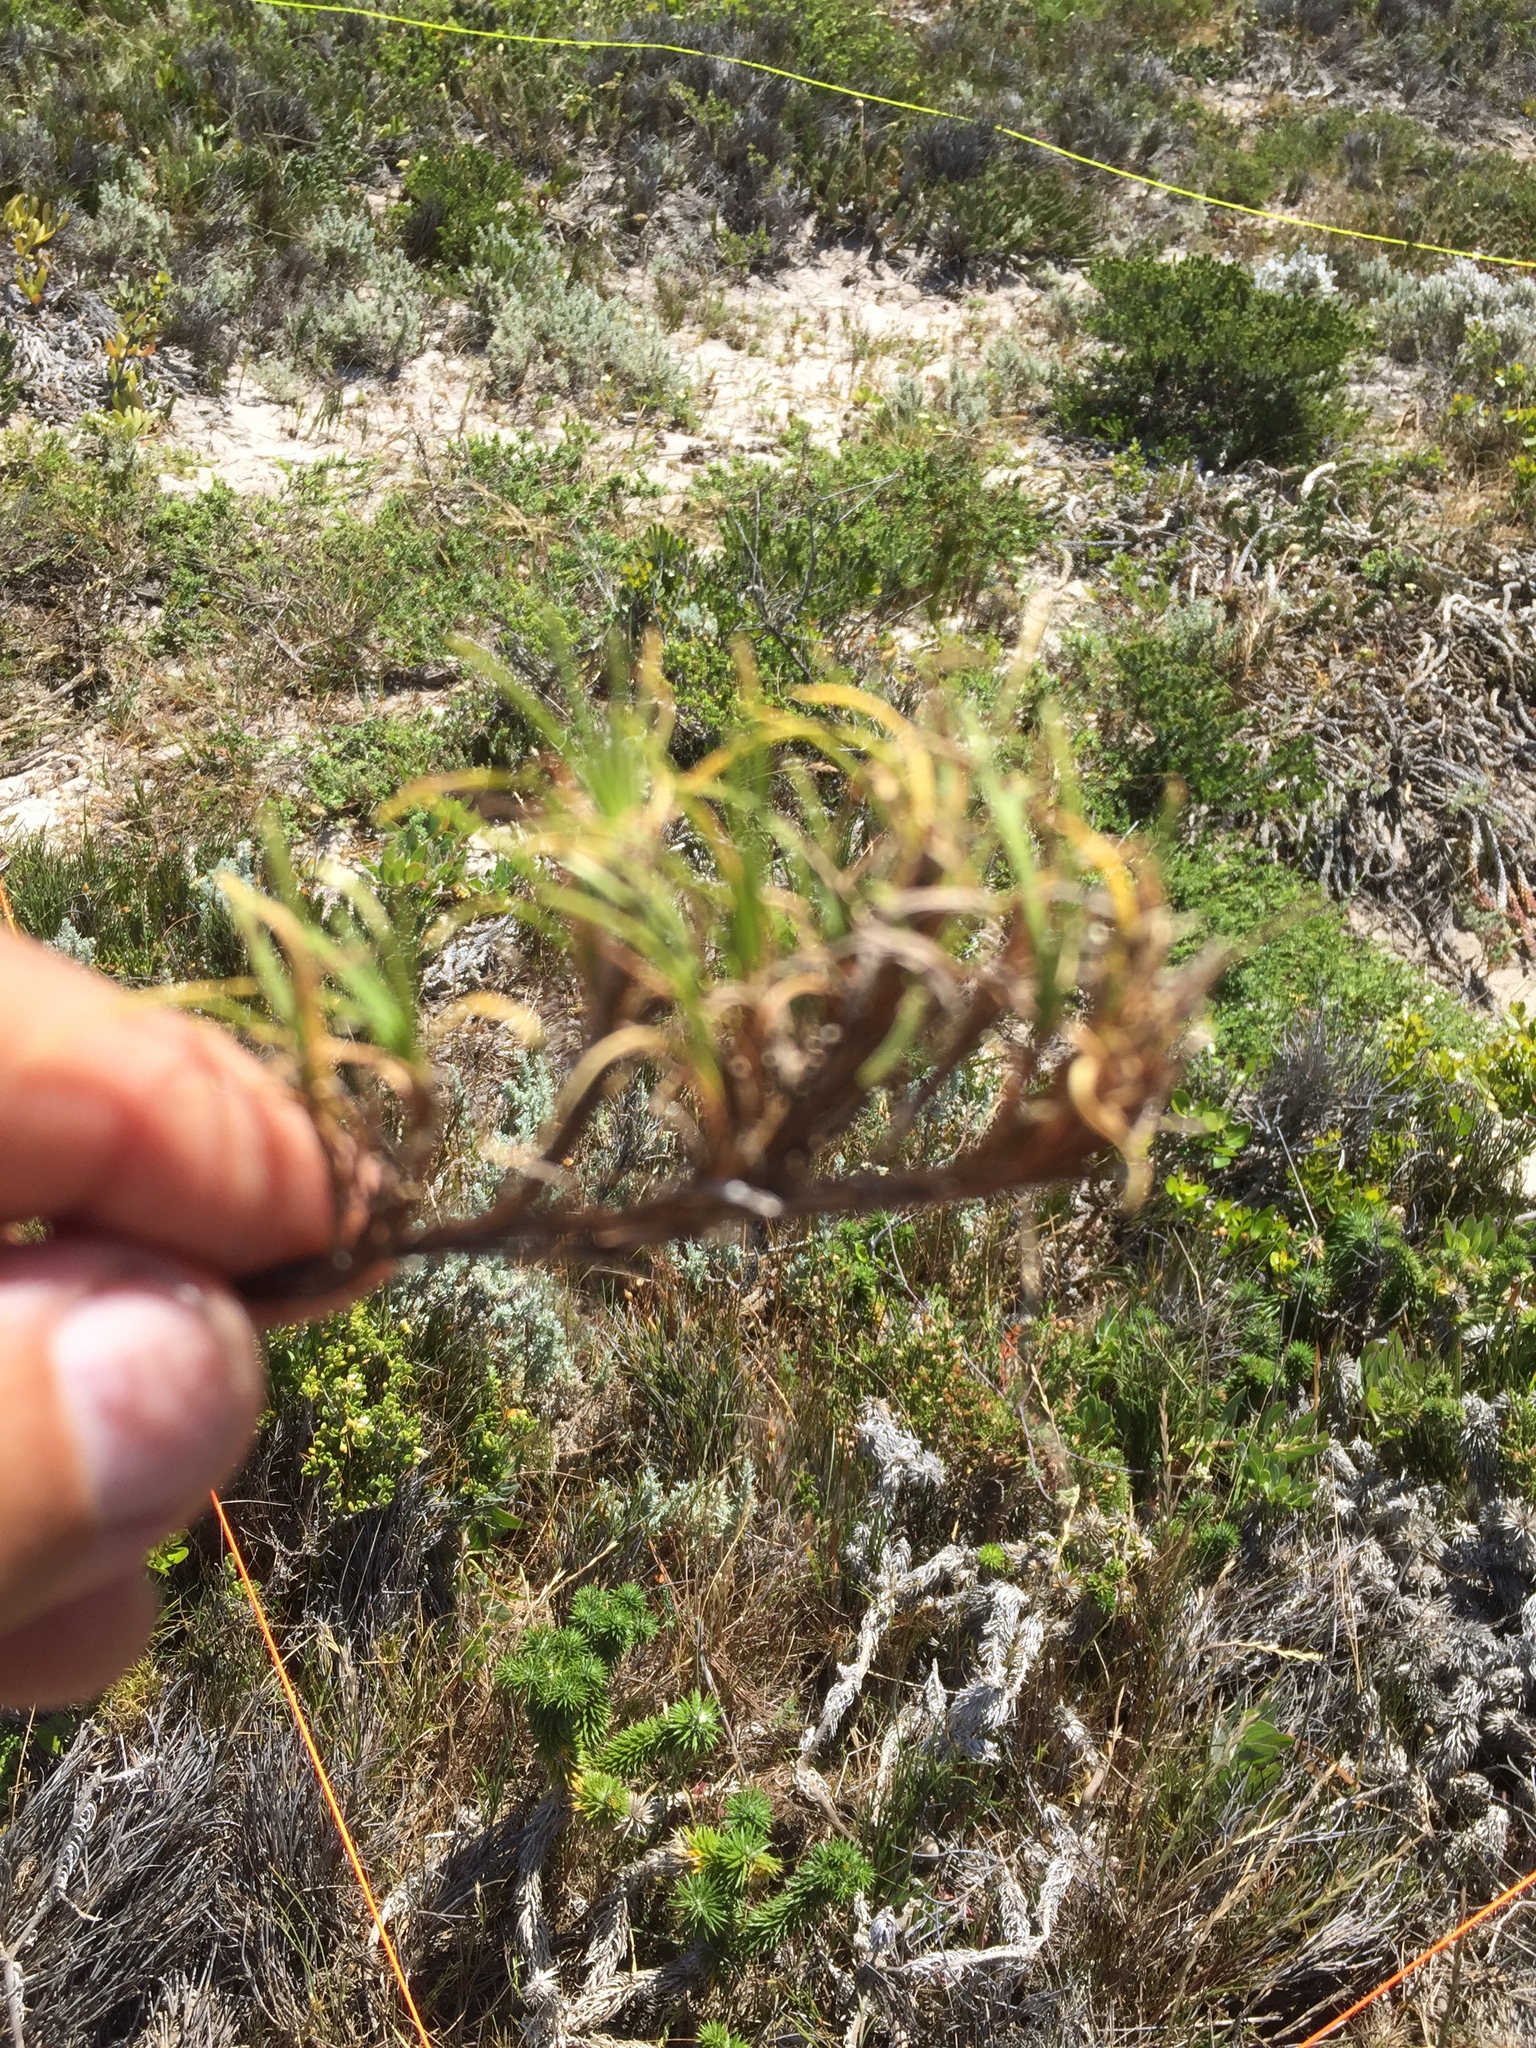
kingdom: Plantae
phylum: Tracheophyta
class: Liliopsida
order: Poales
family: Cyperaceae
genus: Ficinia
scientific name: Ficinia ramosissima
